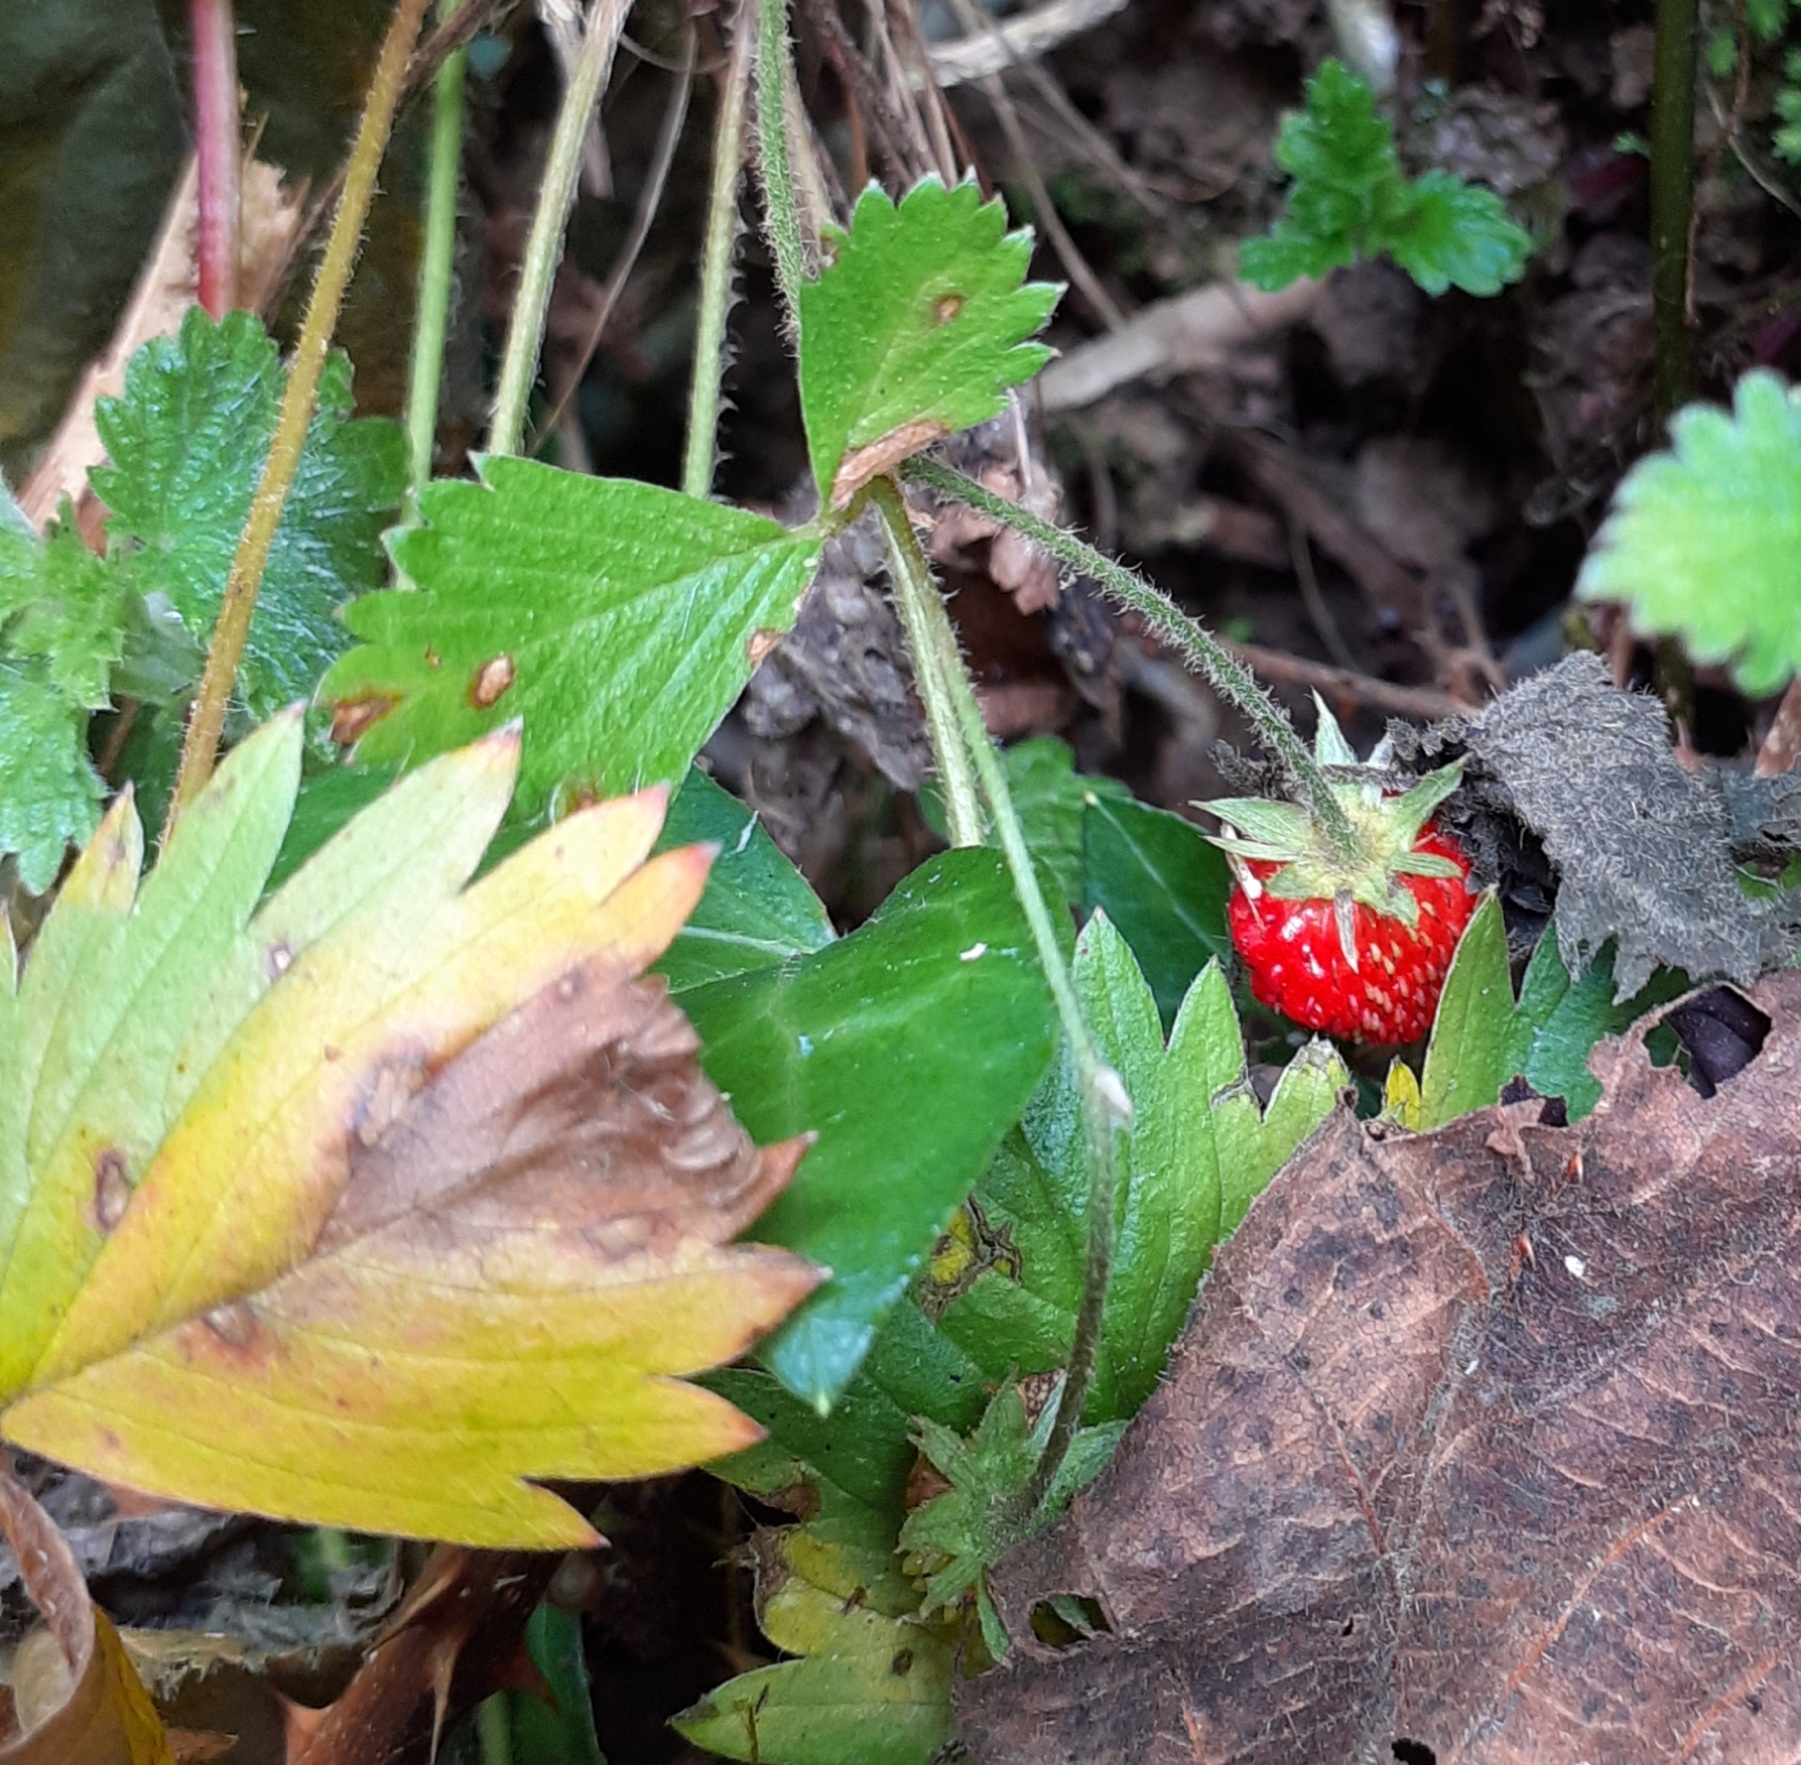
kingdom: Plantae
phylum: Tracheophyta
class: Magnoliopsida
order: Rosales
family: Rosaceae
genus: Fragaria
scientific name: Fragaria vesca
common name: Wild strawberry
